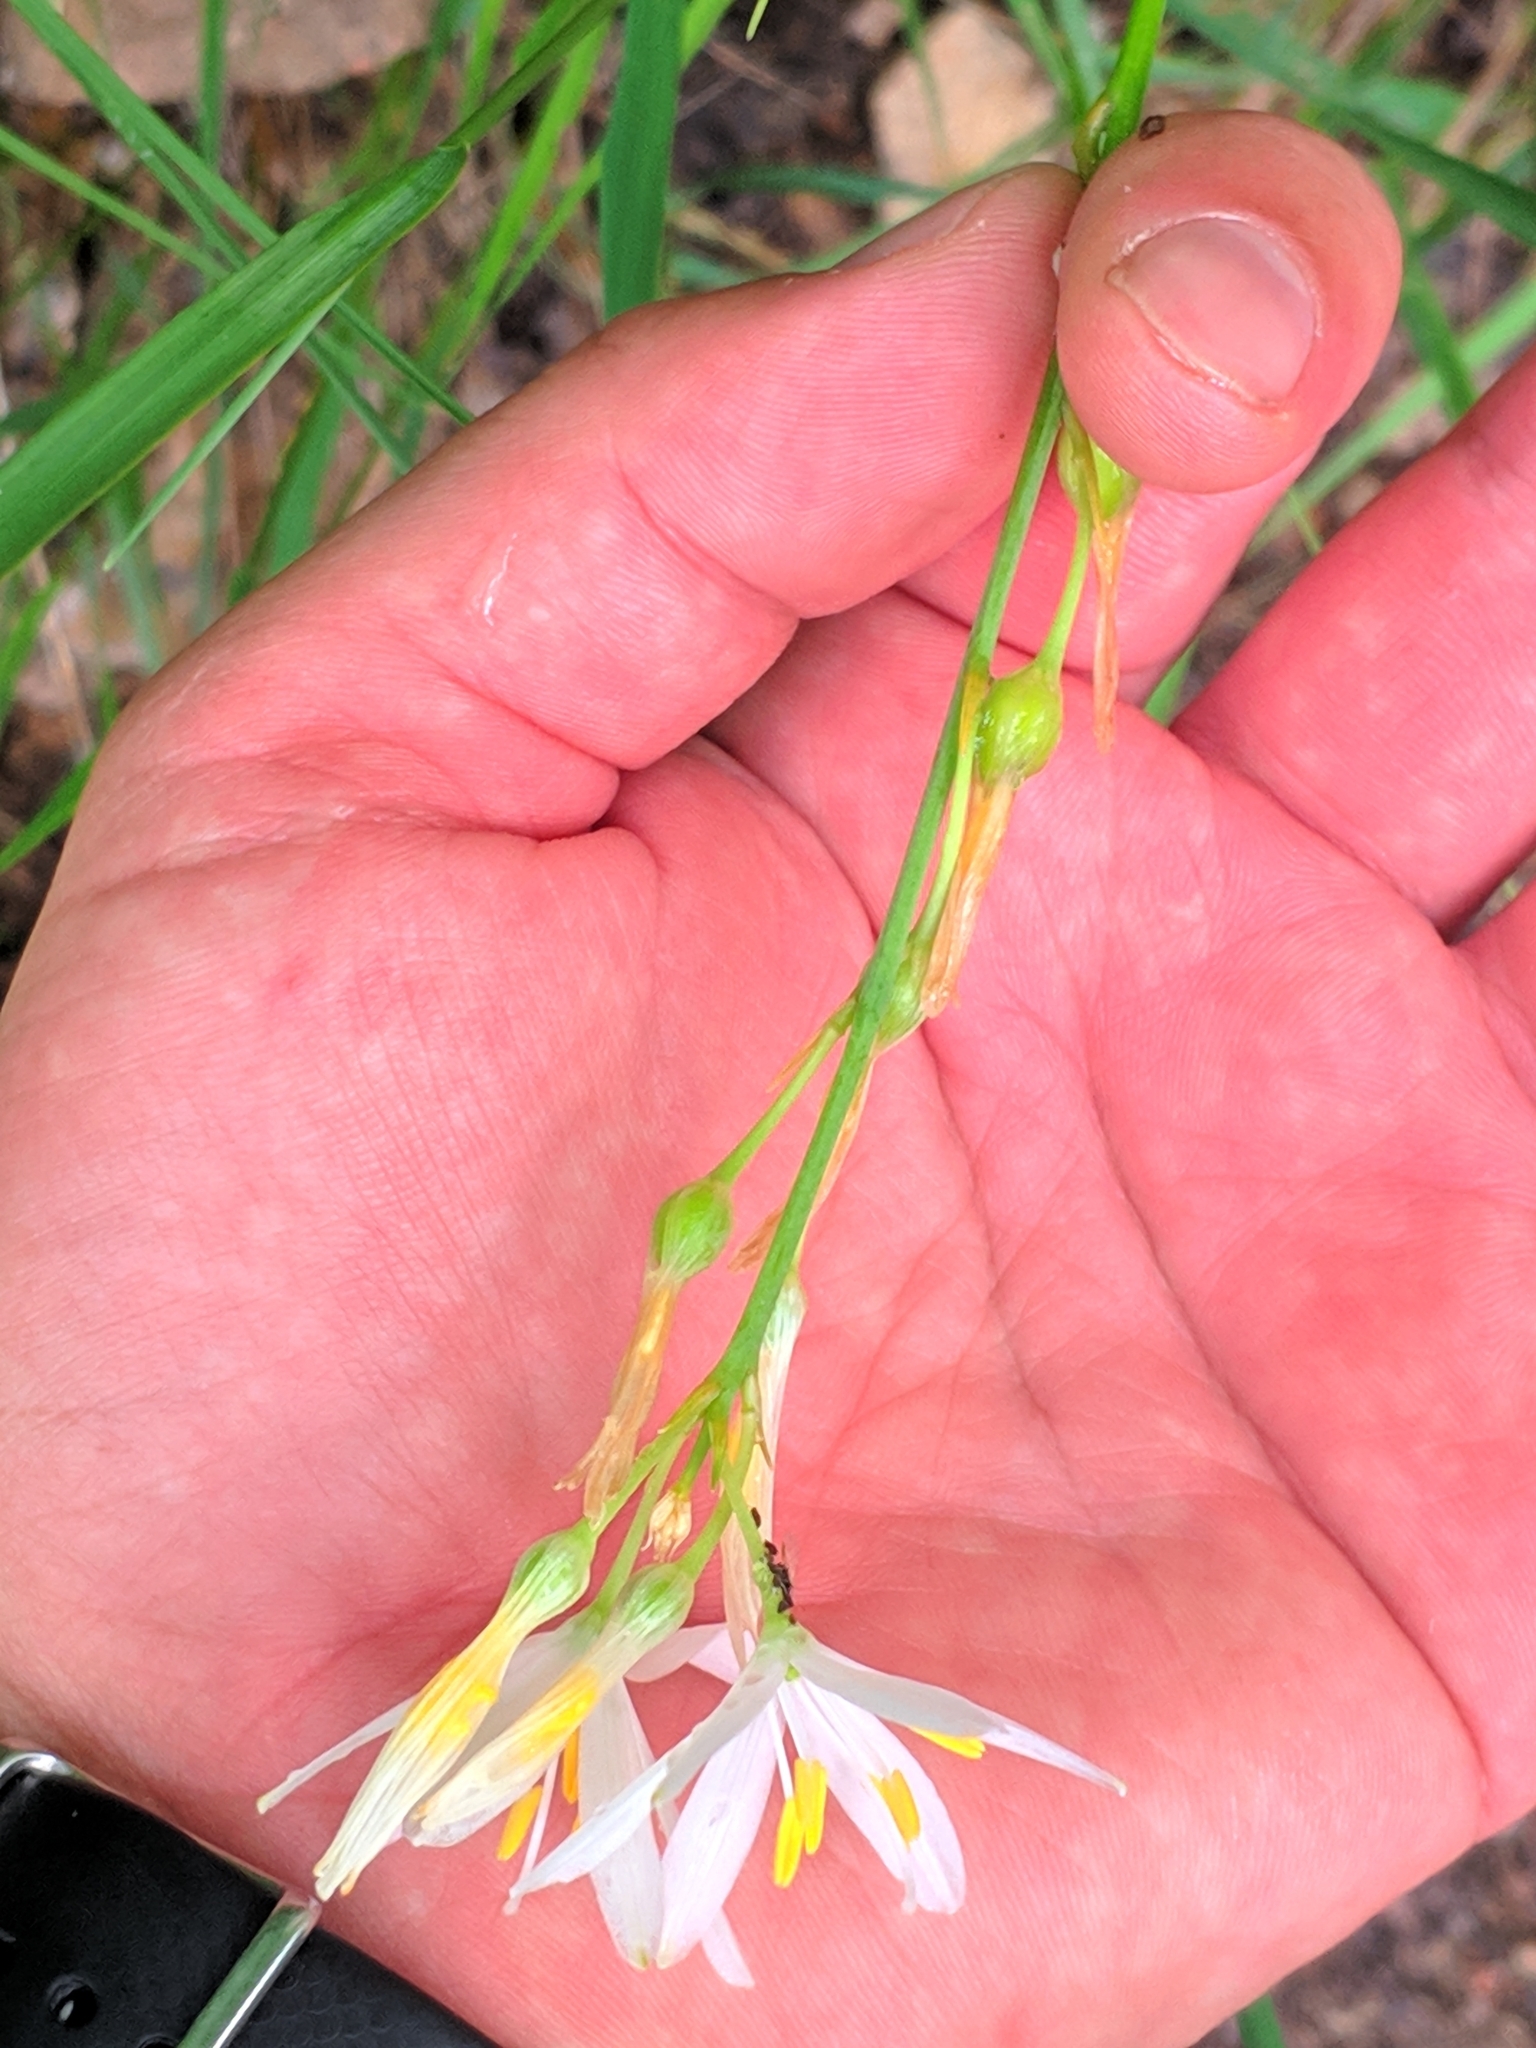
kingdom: Plantae
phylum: Tracheophyta
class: Liliopsida
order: Asparagales
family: Asparagaceae
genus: Anthericum
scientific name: Anthericum liliago
